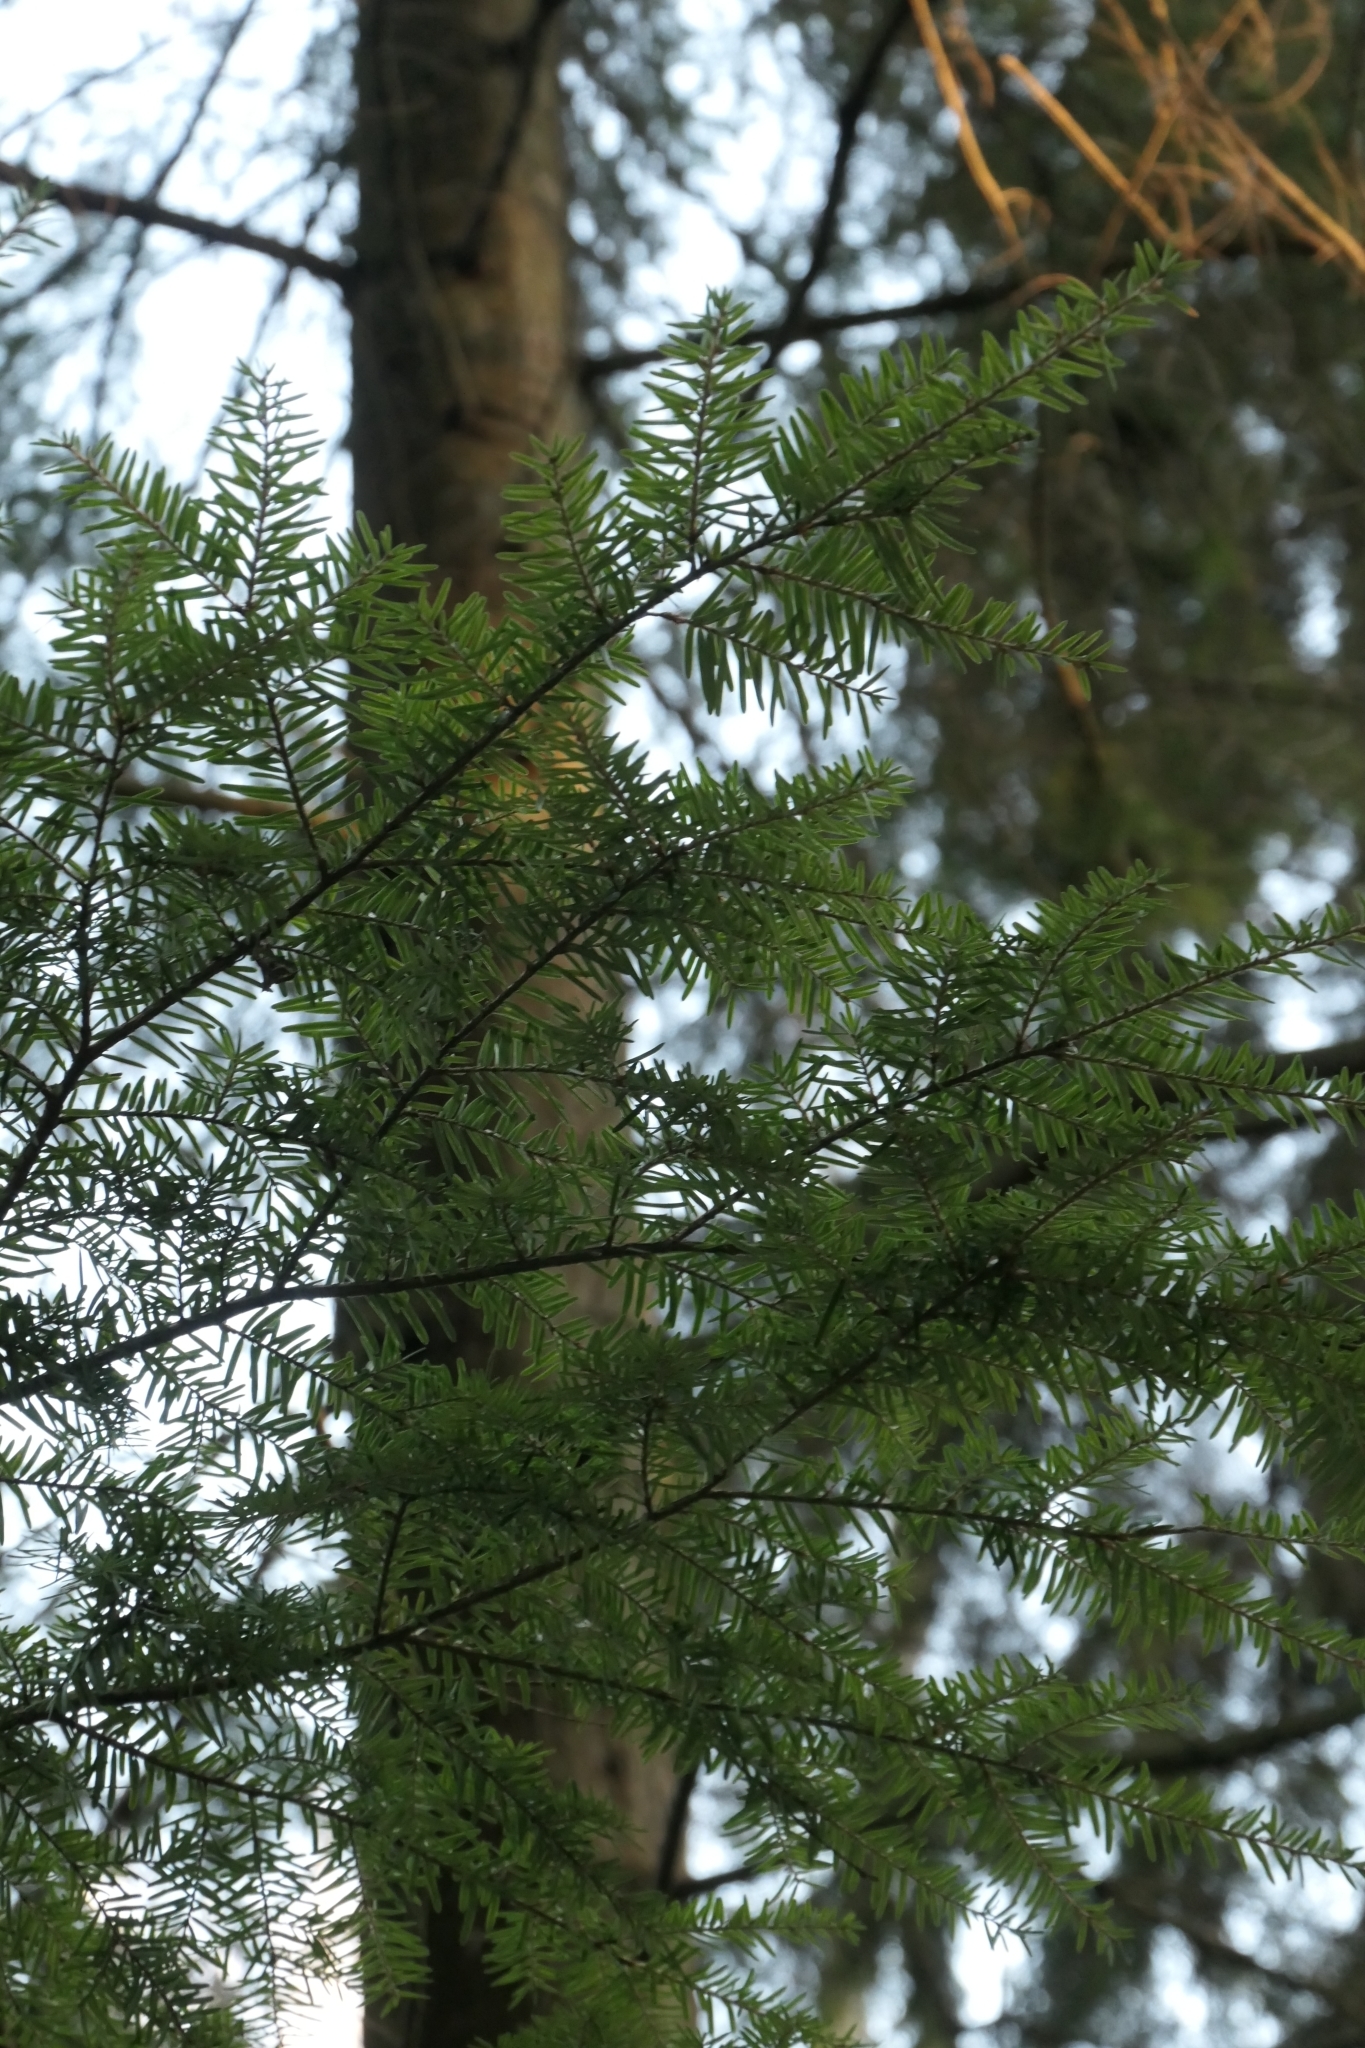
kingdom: Plantae
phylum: Tracheophyta
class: Pinopsida
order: Pinales
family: Pinaceae
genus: Tsuga
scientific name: Tsuga heterophylla
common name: Western hemlock
